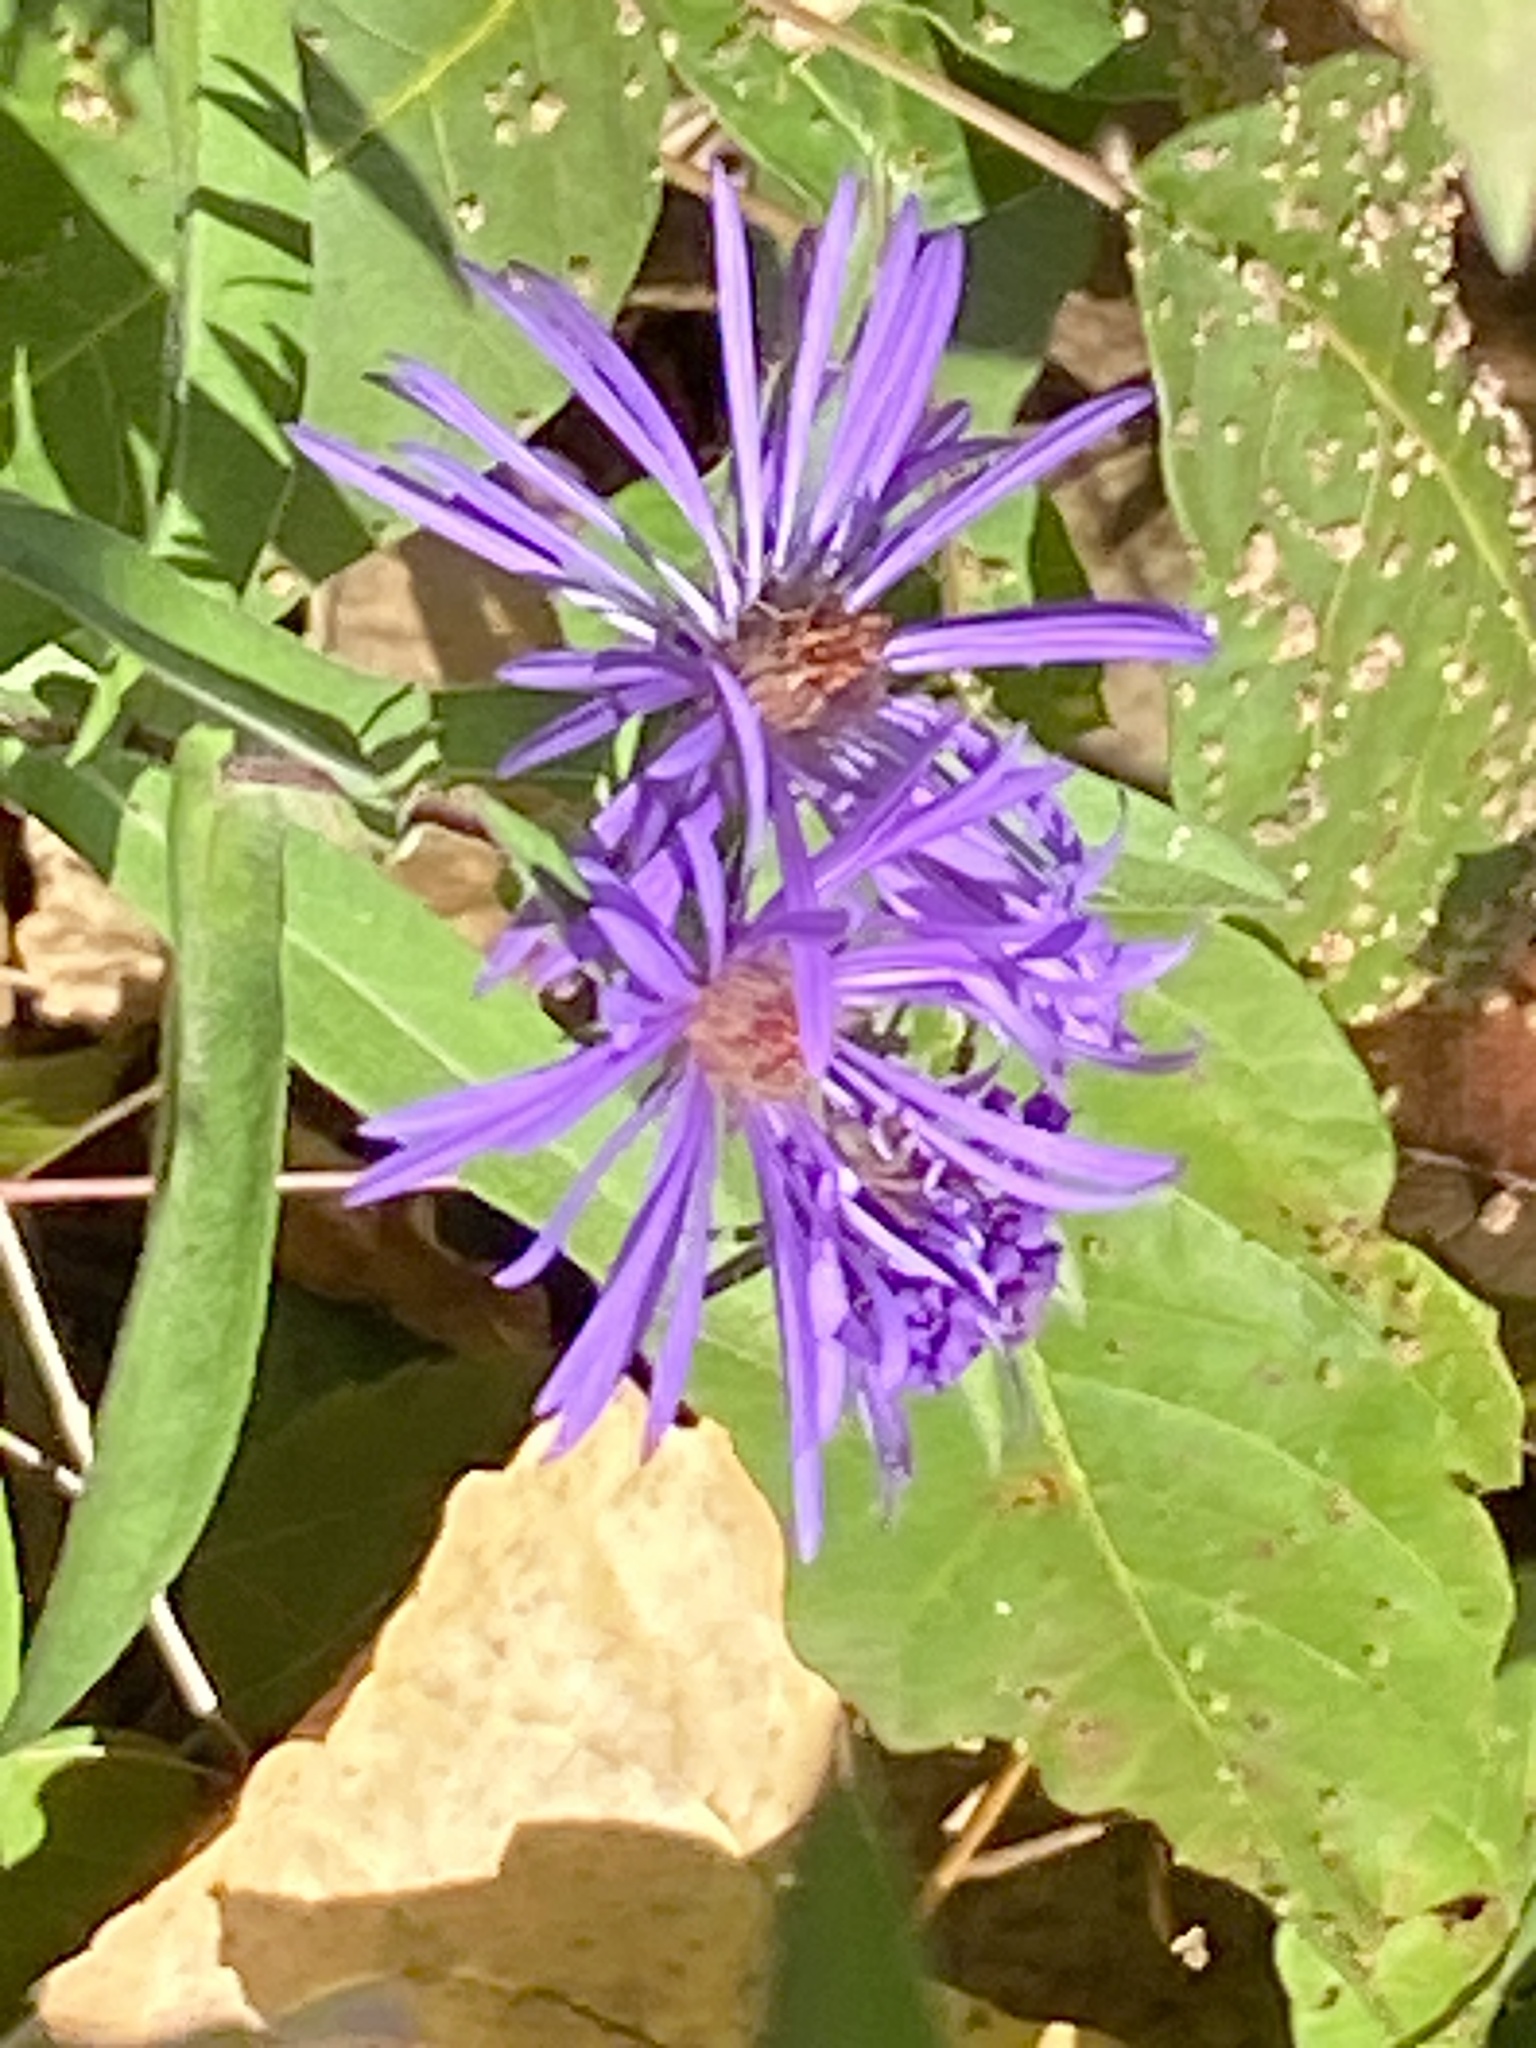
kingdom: Plantae
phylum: Tracheophyta
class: Magnoliopsida
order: Asterales
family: Asteraceae
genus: Symphyotrichum
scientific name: Symphyotrichum novae-angliae
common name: Michaelmas daisy
